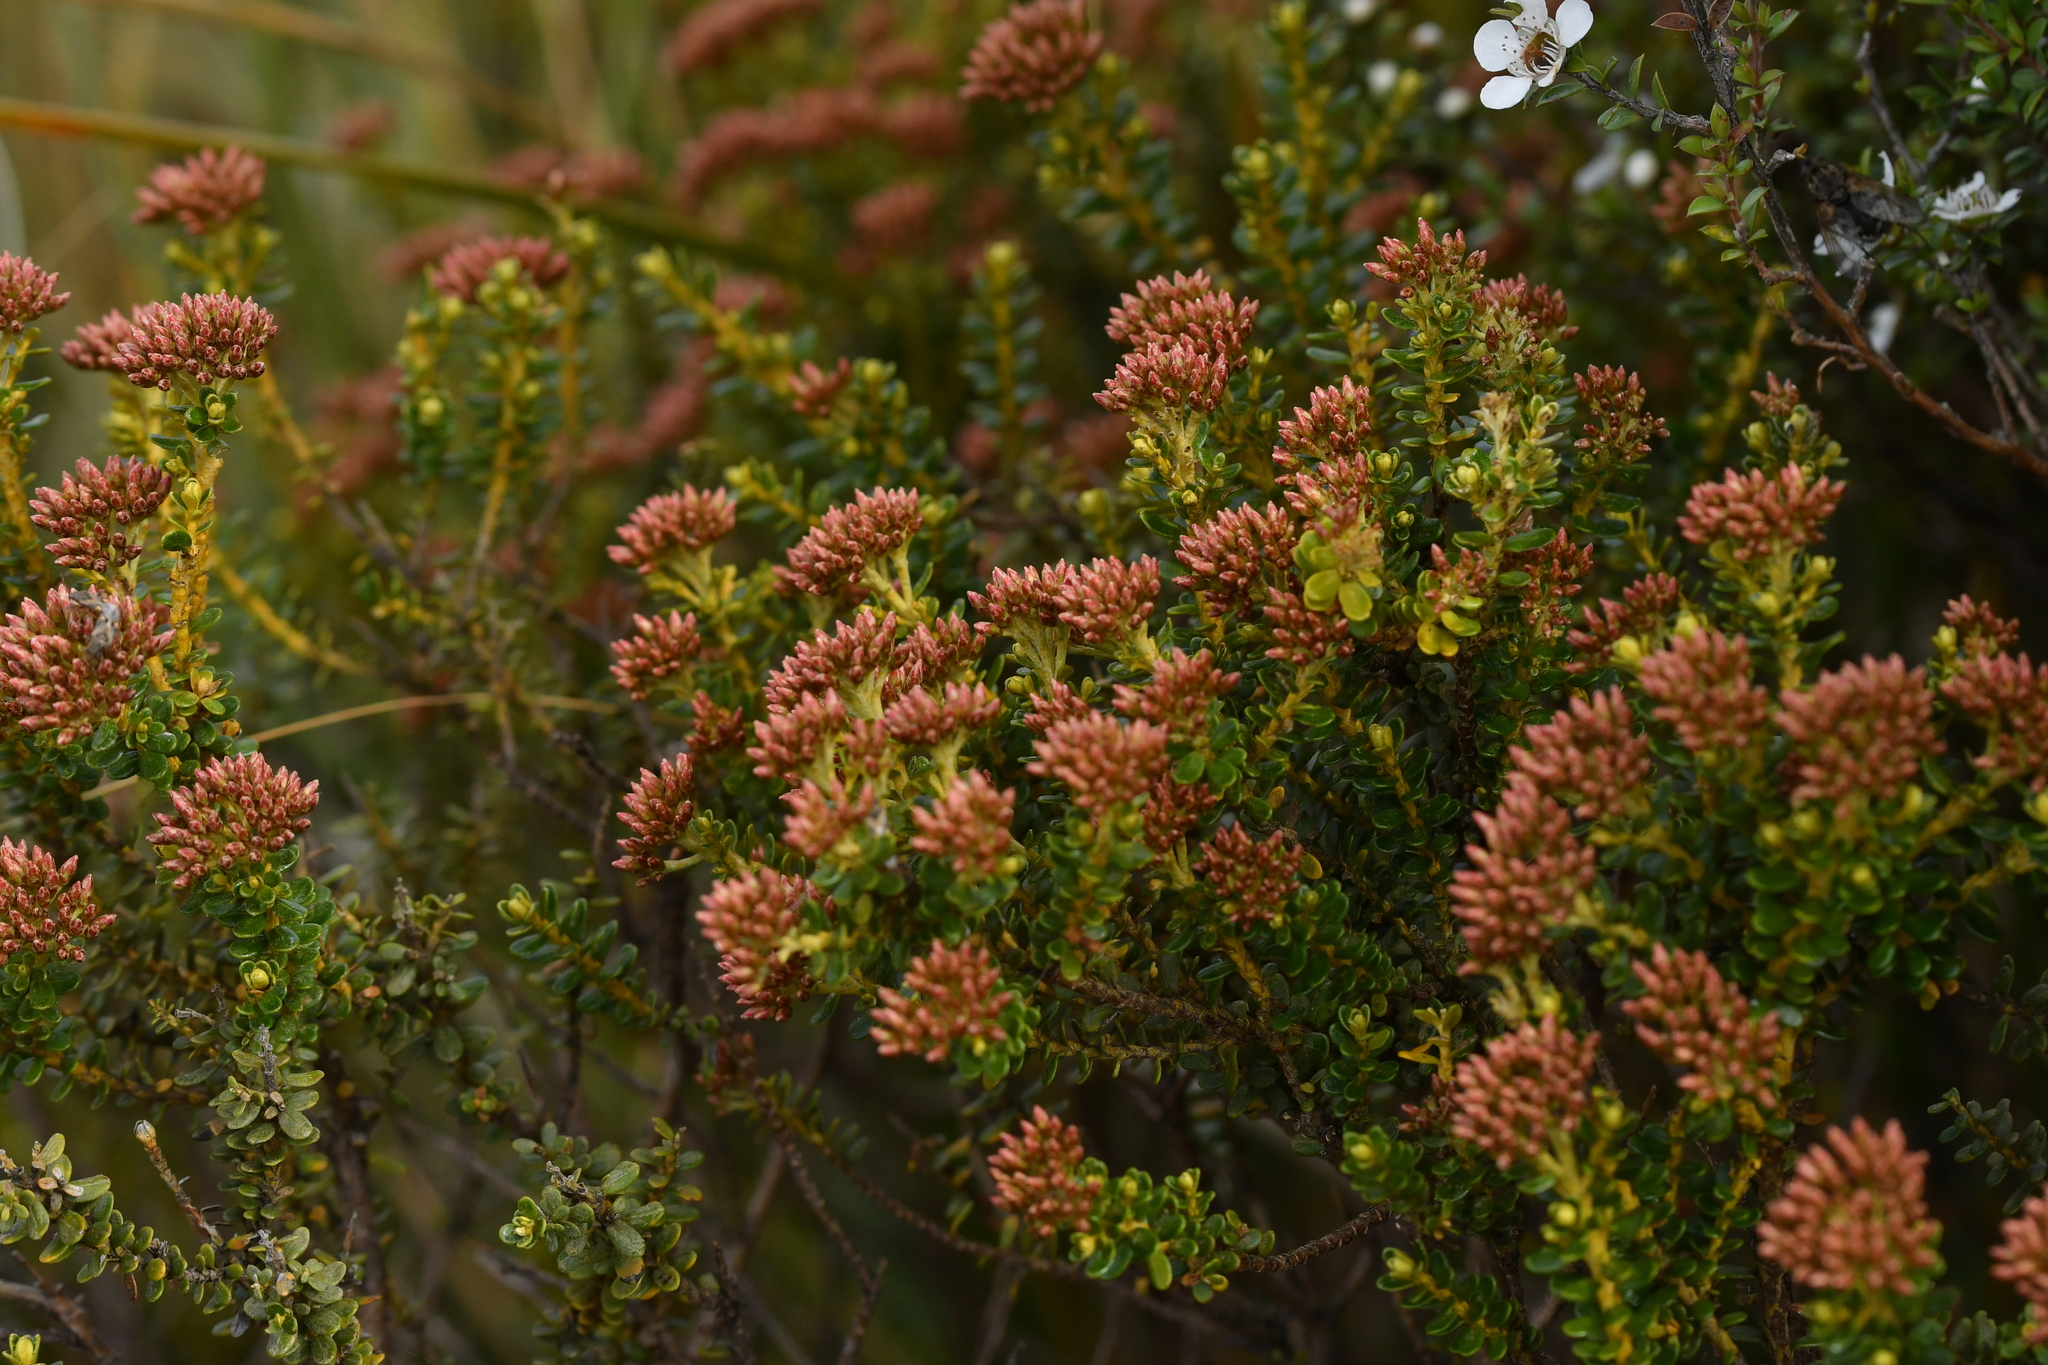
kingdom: Plantae
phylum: Tracheophyta
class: Magnoliopsida
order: Asterales
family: Asteraceae
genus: Ozothamnus
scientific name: Ozothamnus leptophyllus
